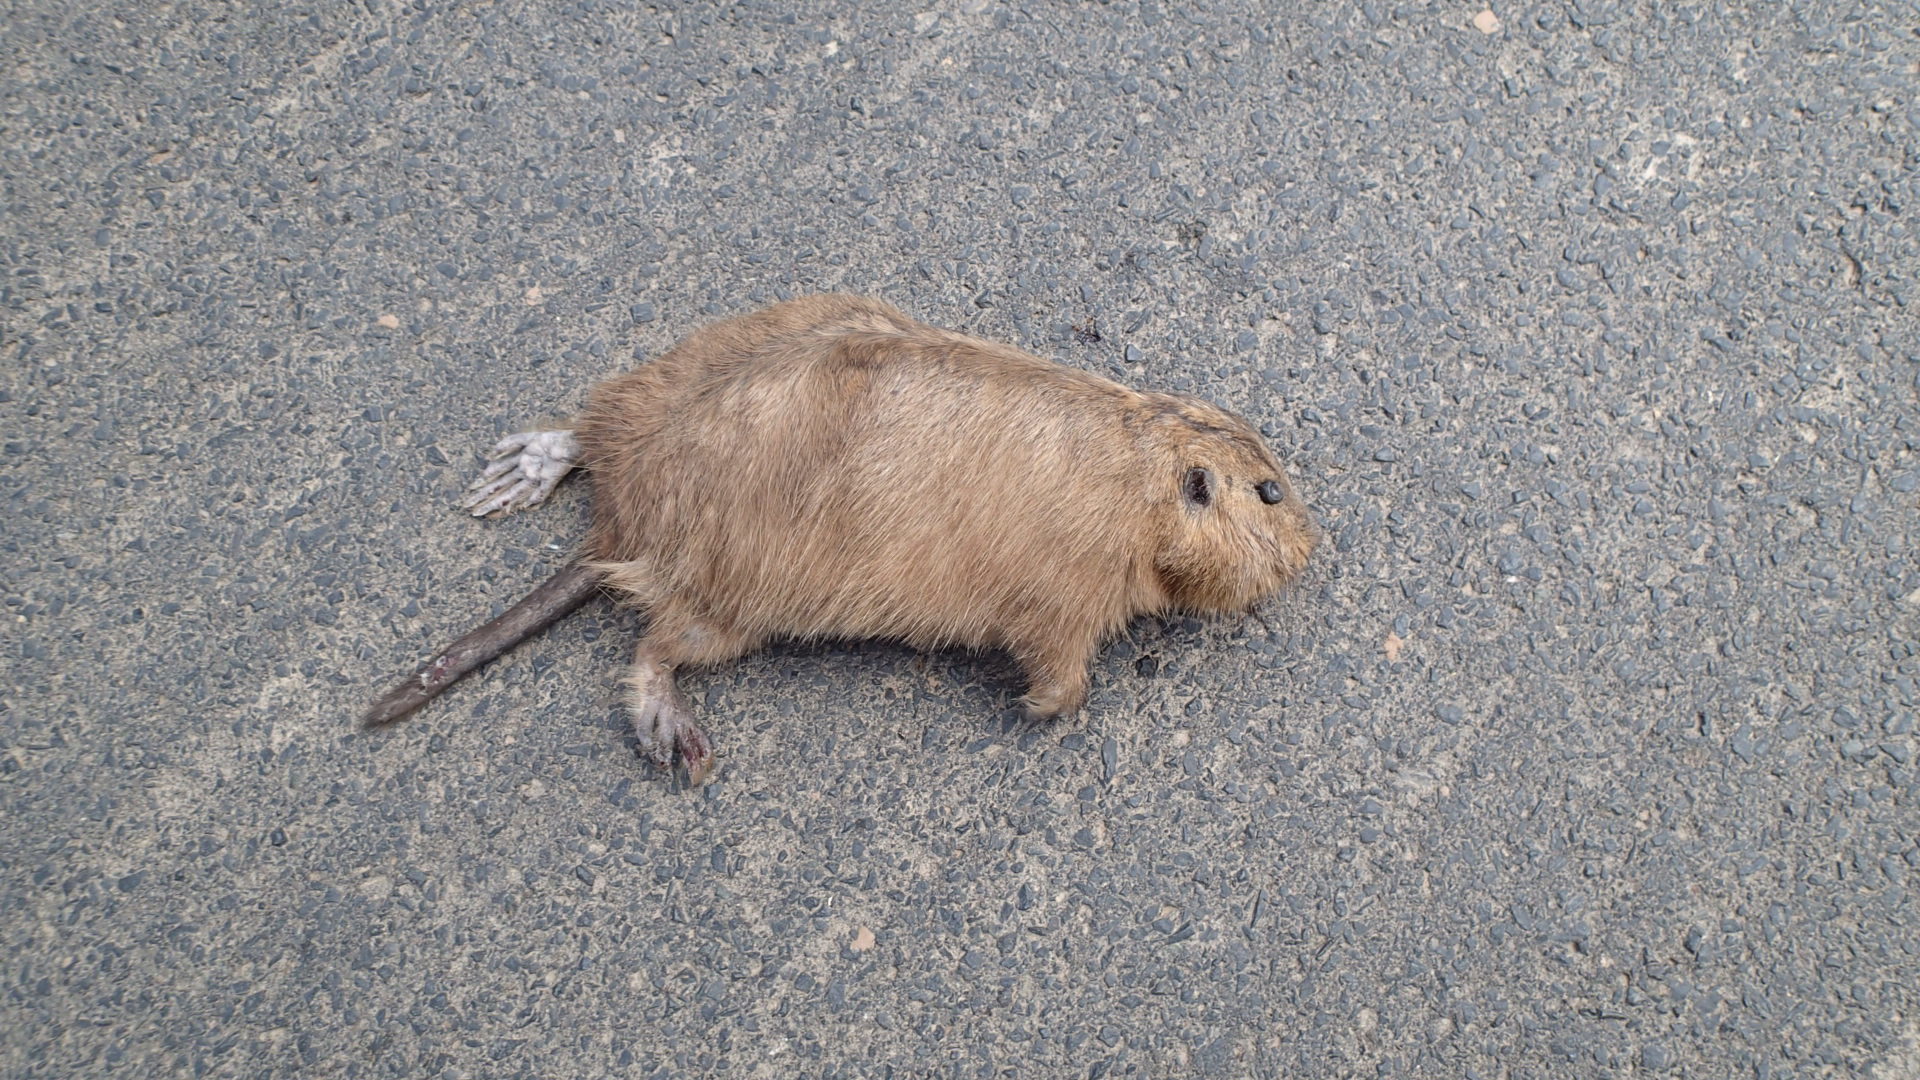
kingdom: Animalia
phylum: Chordata
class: Mammalia
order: Rodentia
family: Ctenomyidae
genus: Ctenomys
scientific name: Ctenomys conoveri
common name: Chacoan tuco-tuco
